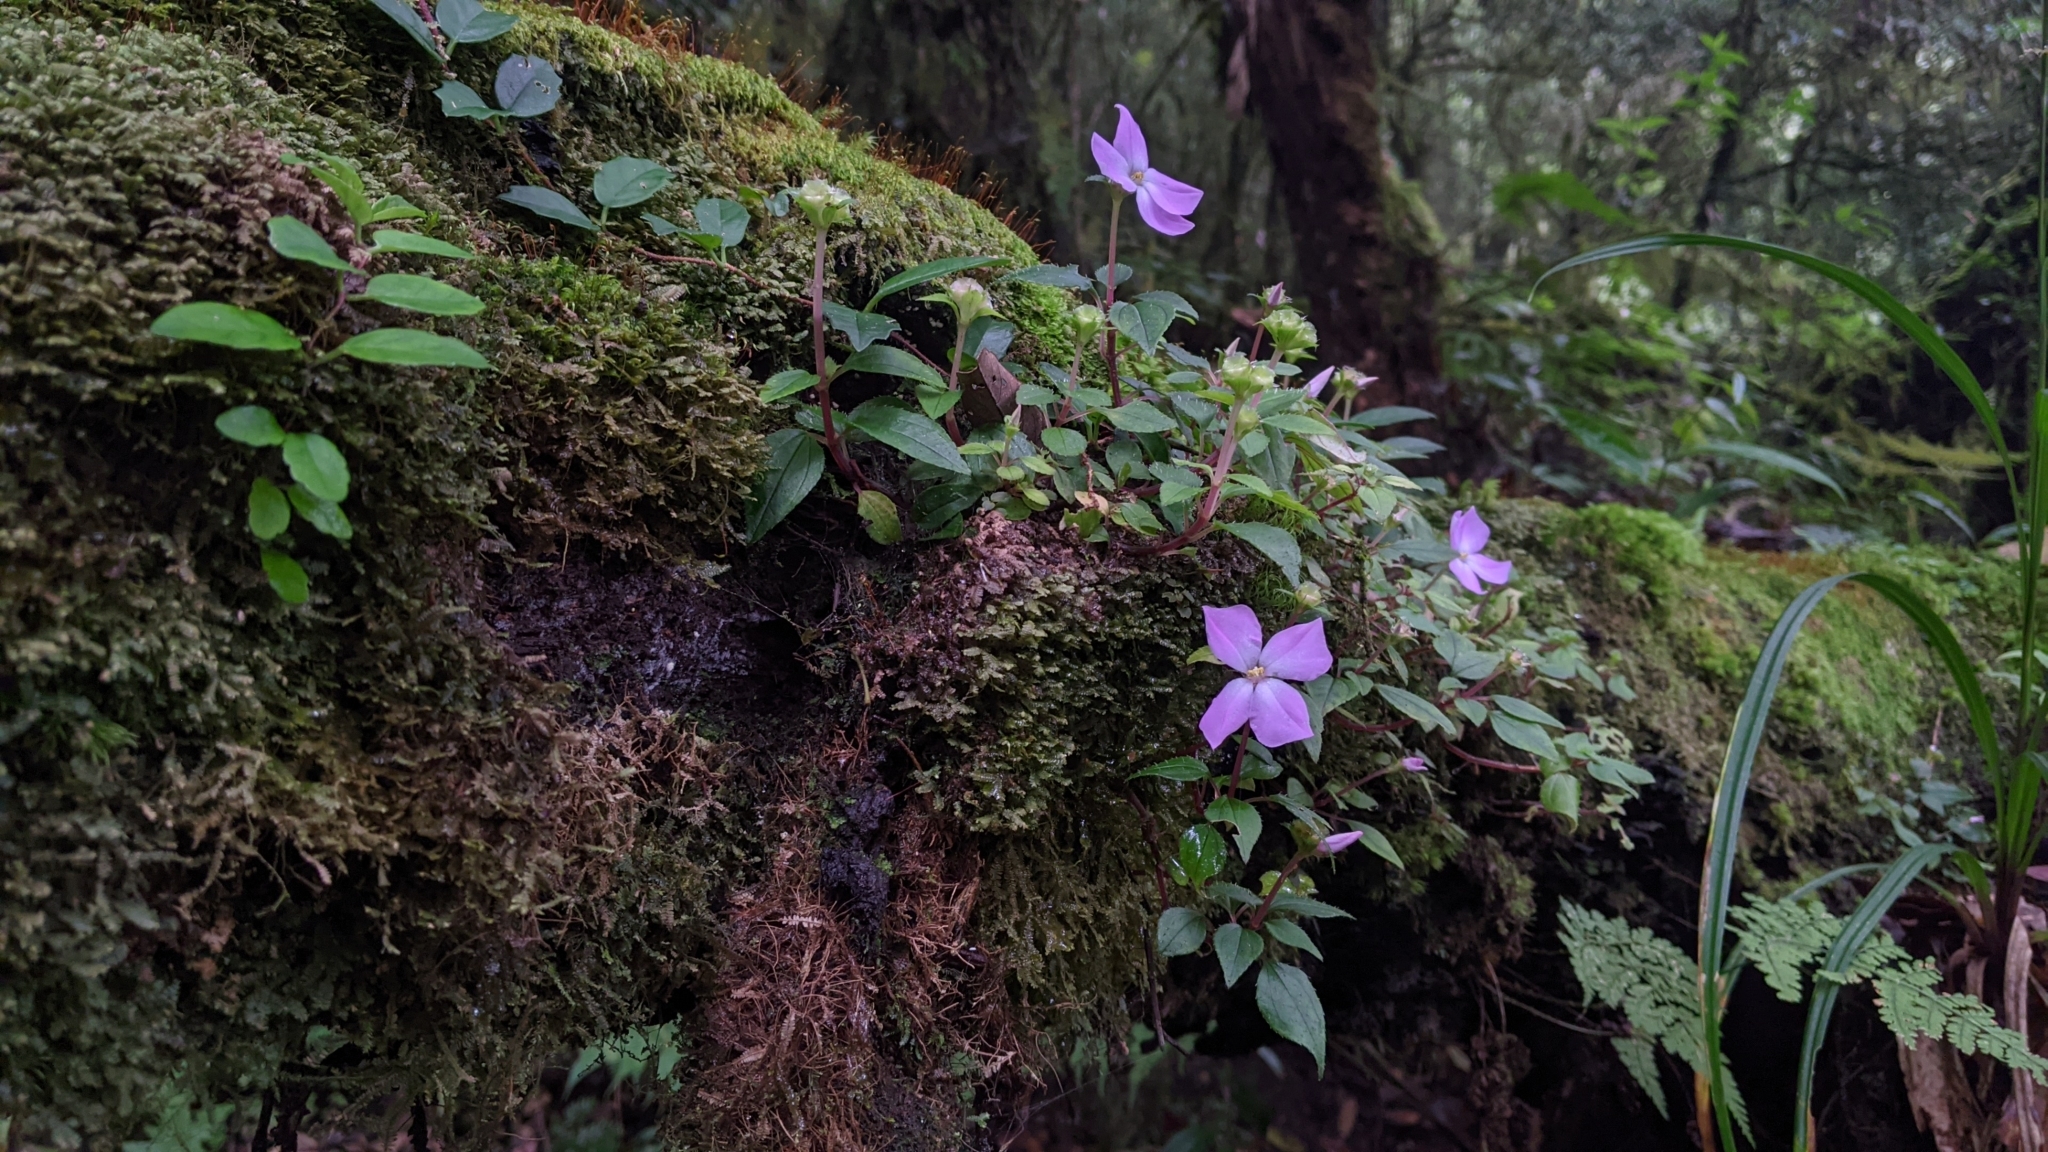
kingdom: Plantae
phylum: Tracheophyta
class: Magnoliopsida
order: Myrtales
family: Melastomataceae
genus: Sarcopyramis
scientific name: Sarcopyramis bodinieri
